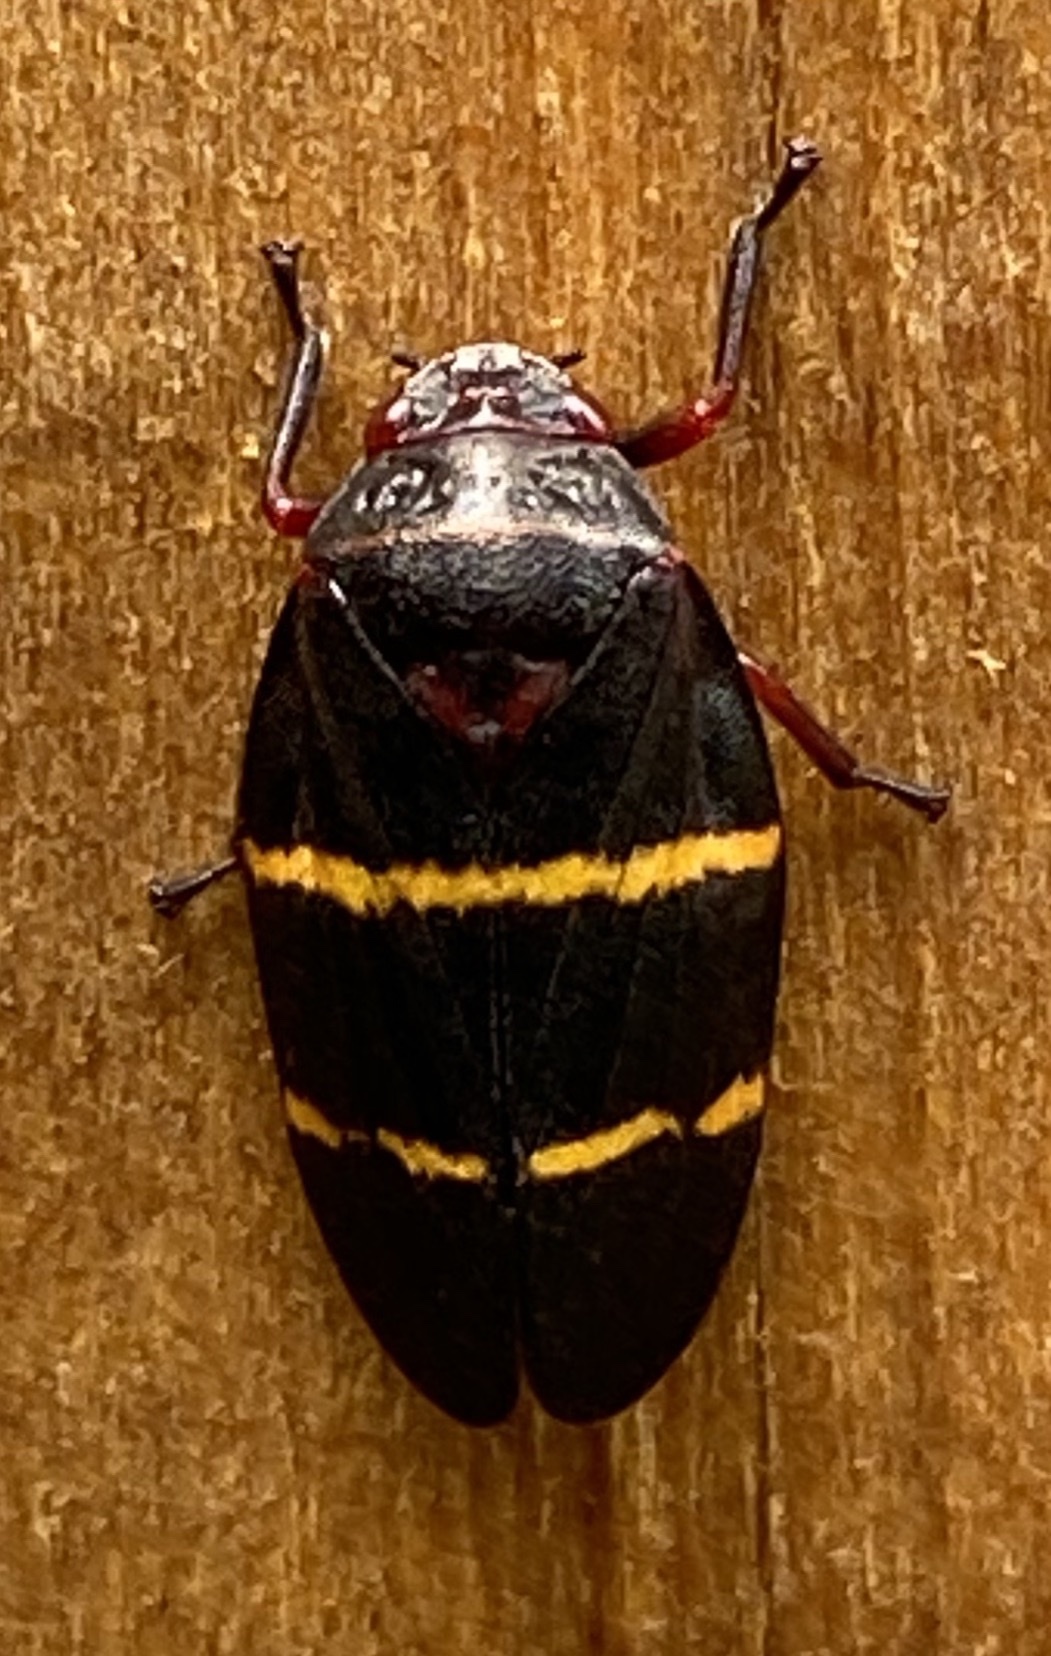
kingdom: Animalia
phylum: Arthropoda
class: Insecta
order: Hemiptera
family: Cercopidae
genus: Prosapia
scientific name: Prosapia bicincta
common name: Twolined spittlebug
